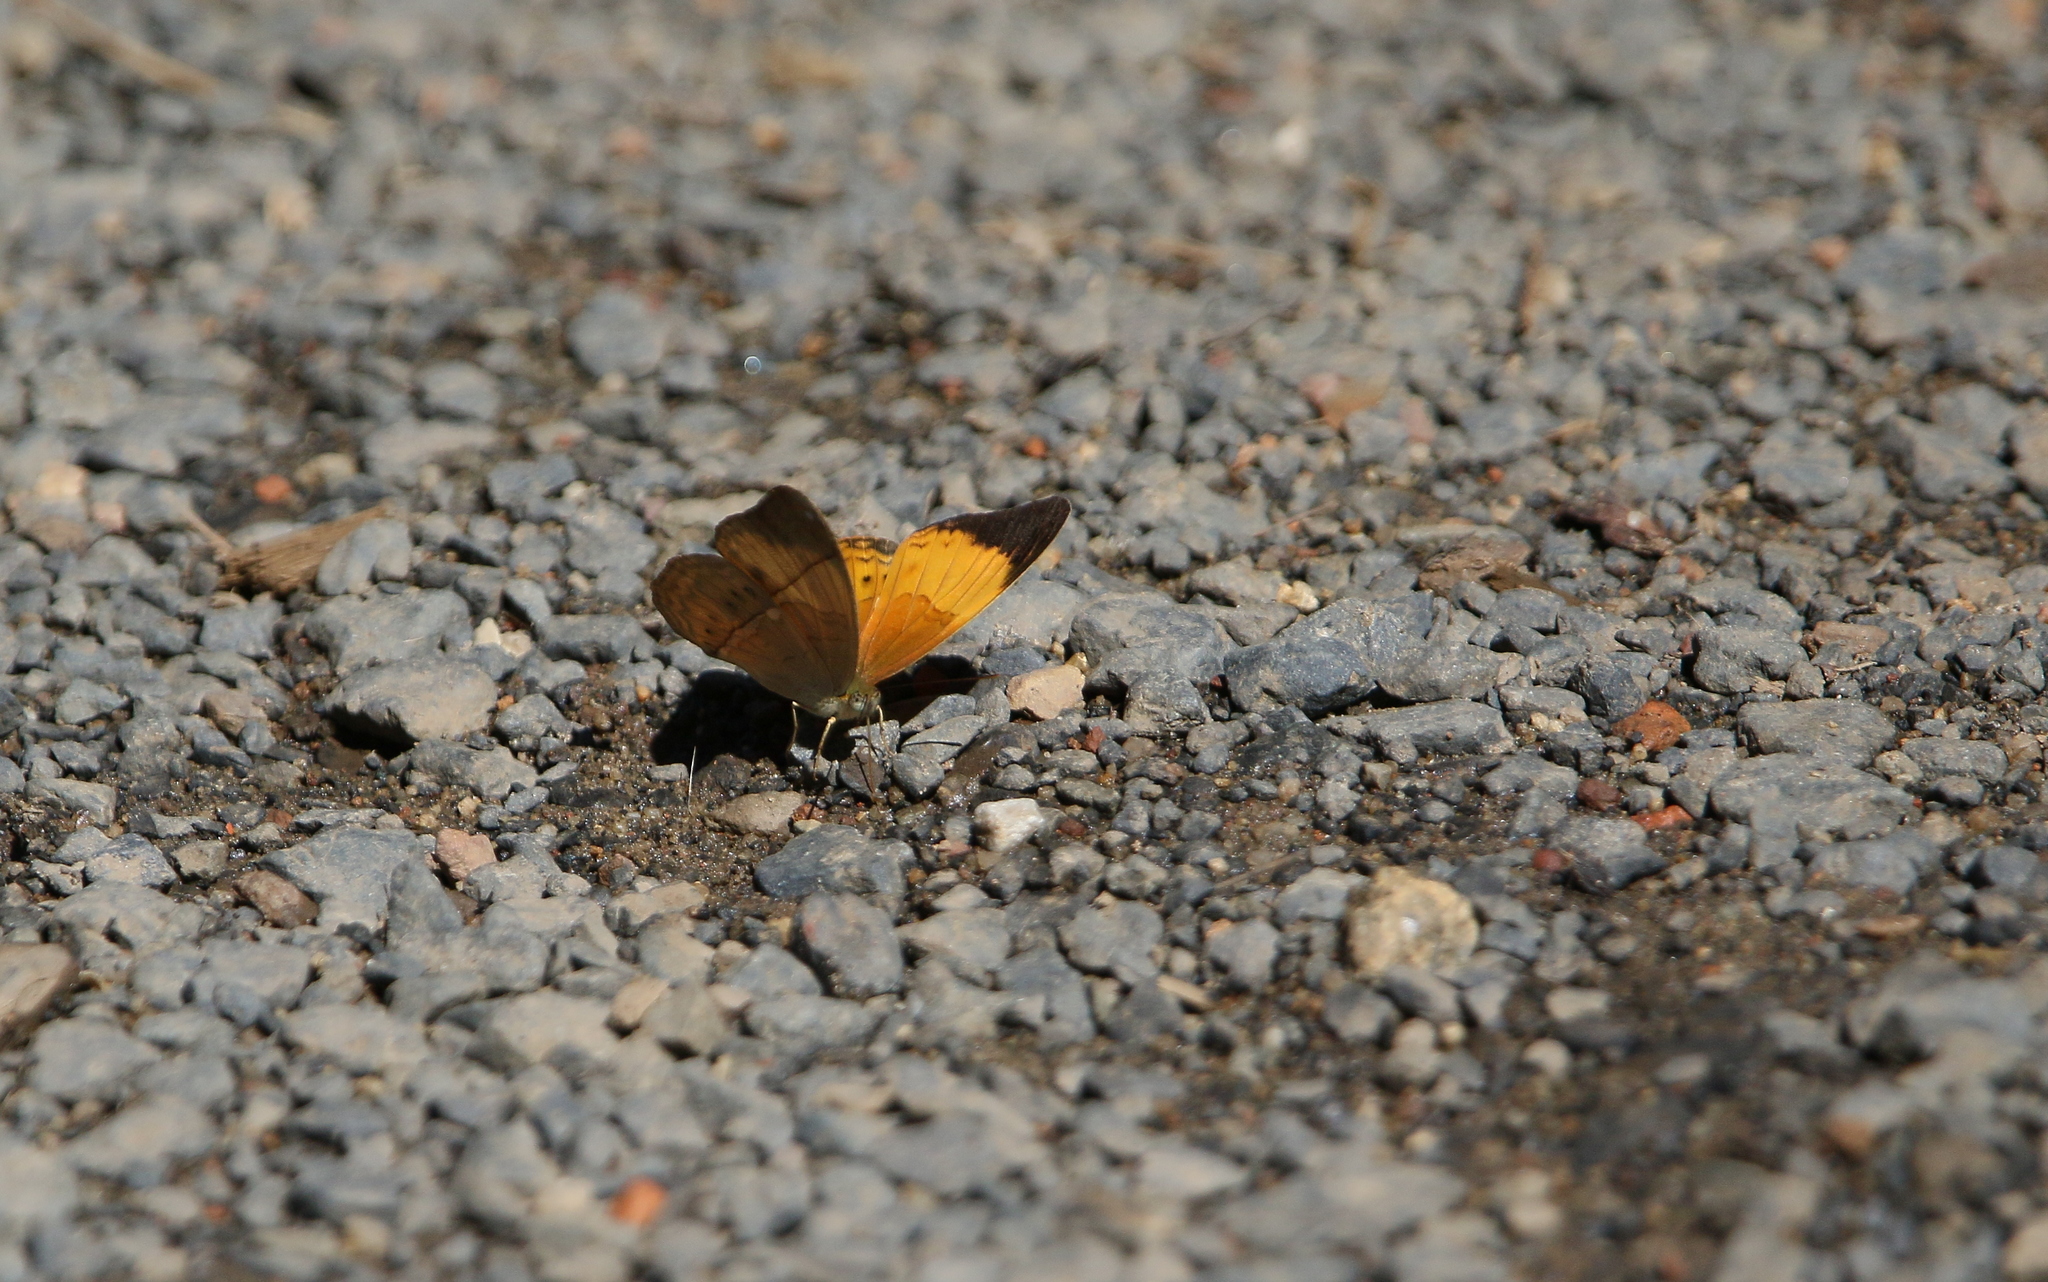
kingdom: Animalia
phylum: Arthropoda
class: Insecta
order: Lepidoptera
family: Nymphalidae
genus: Cirrochroa
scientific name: Cirrochroa orissa
